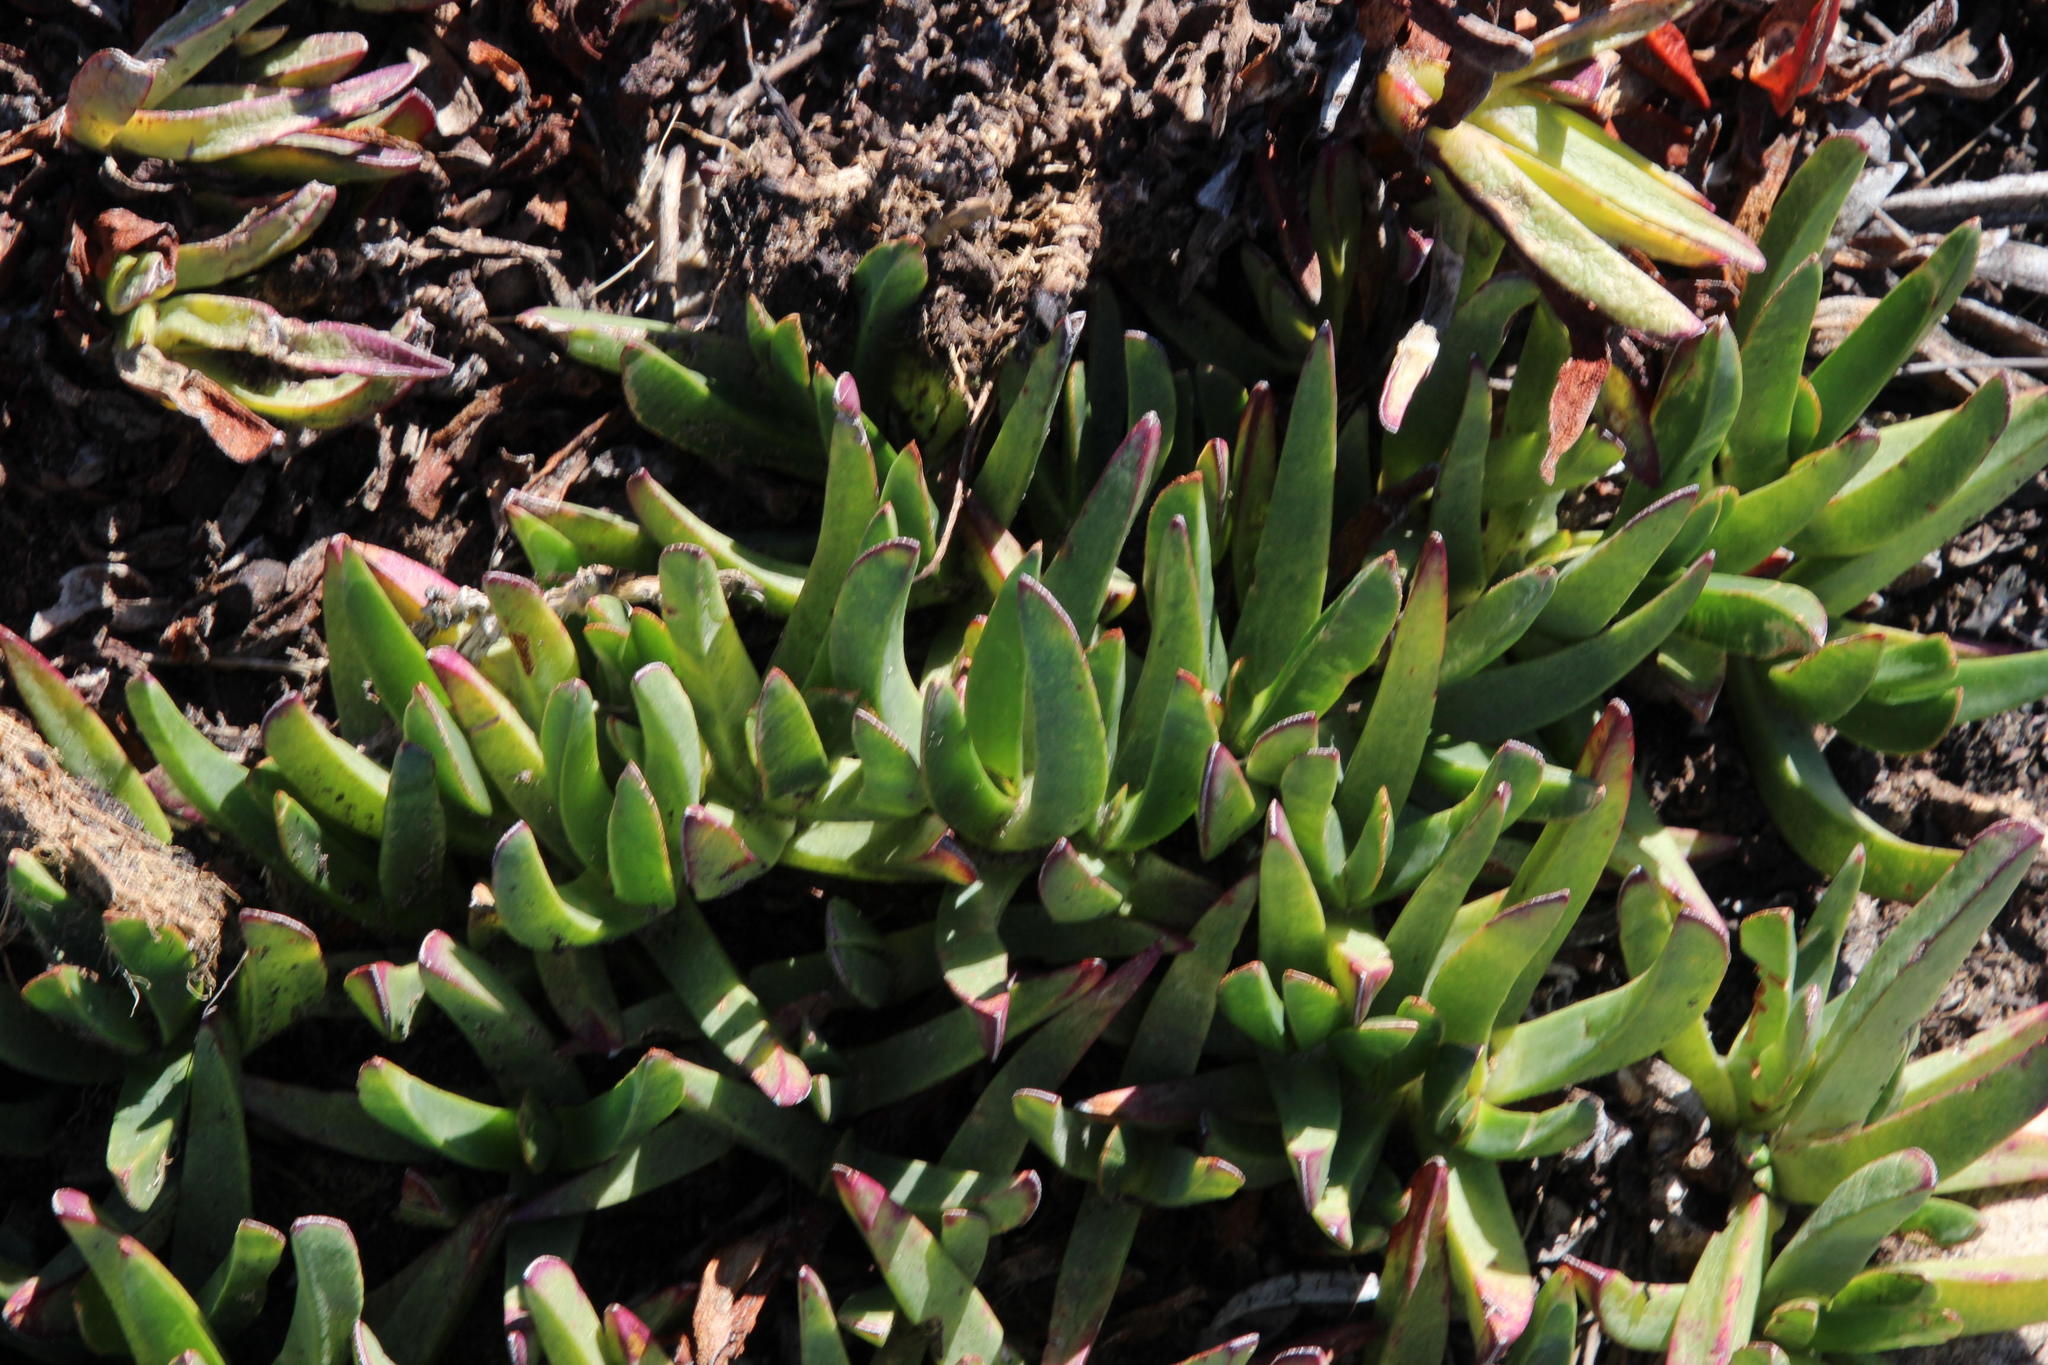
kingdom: Plantae
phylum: Tracheophyta
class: Magnoliopsida
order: Caryophyllales
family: Aizoaceae
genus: Carpobrotus
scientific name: Carpobrotus edulis
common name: Hottentot-fig
